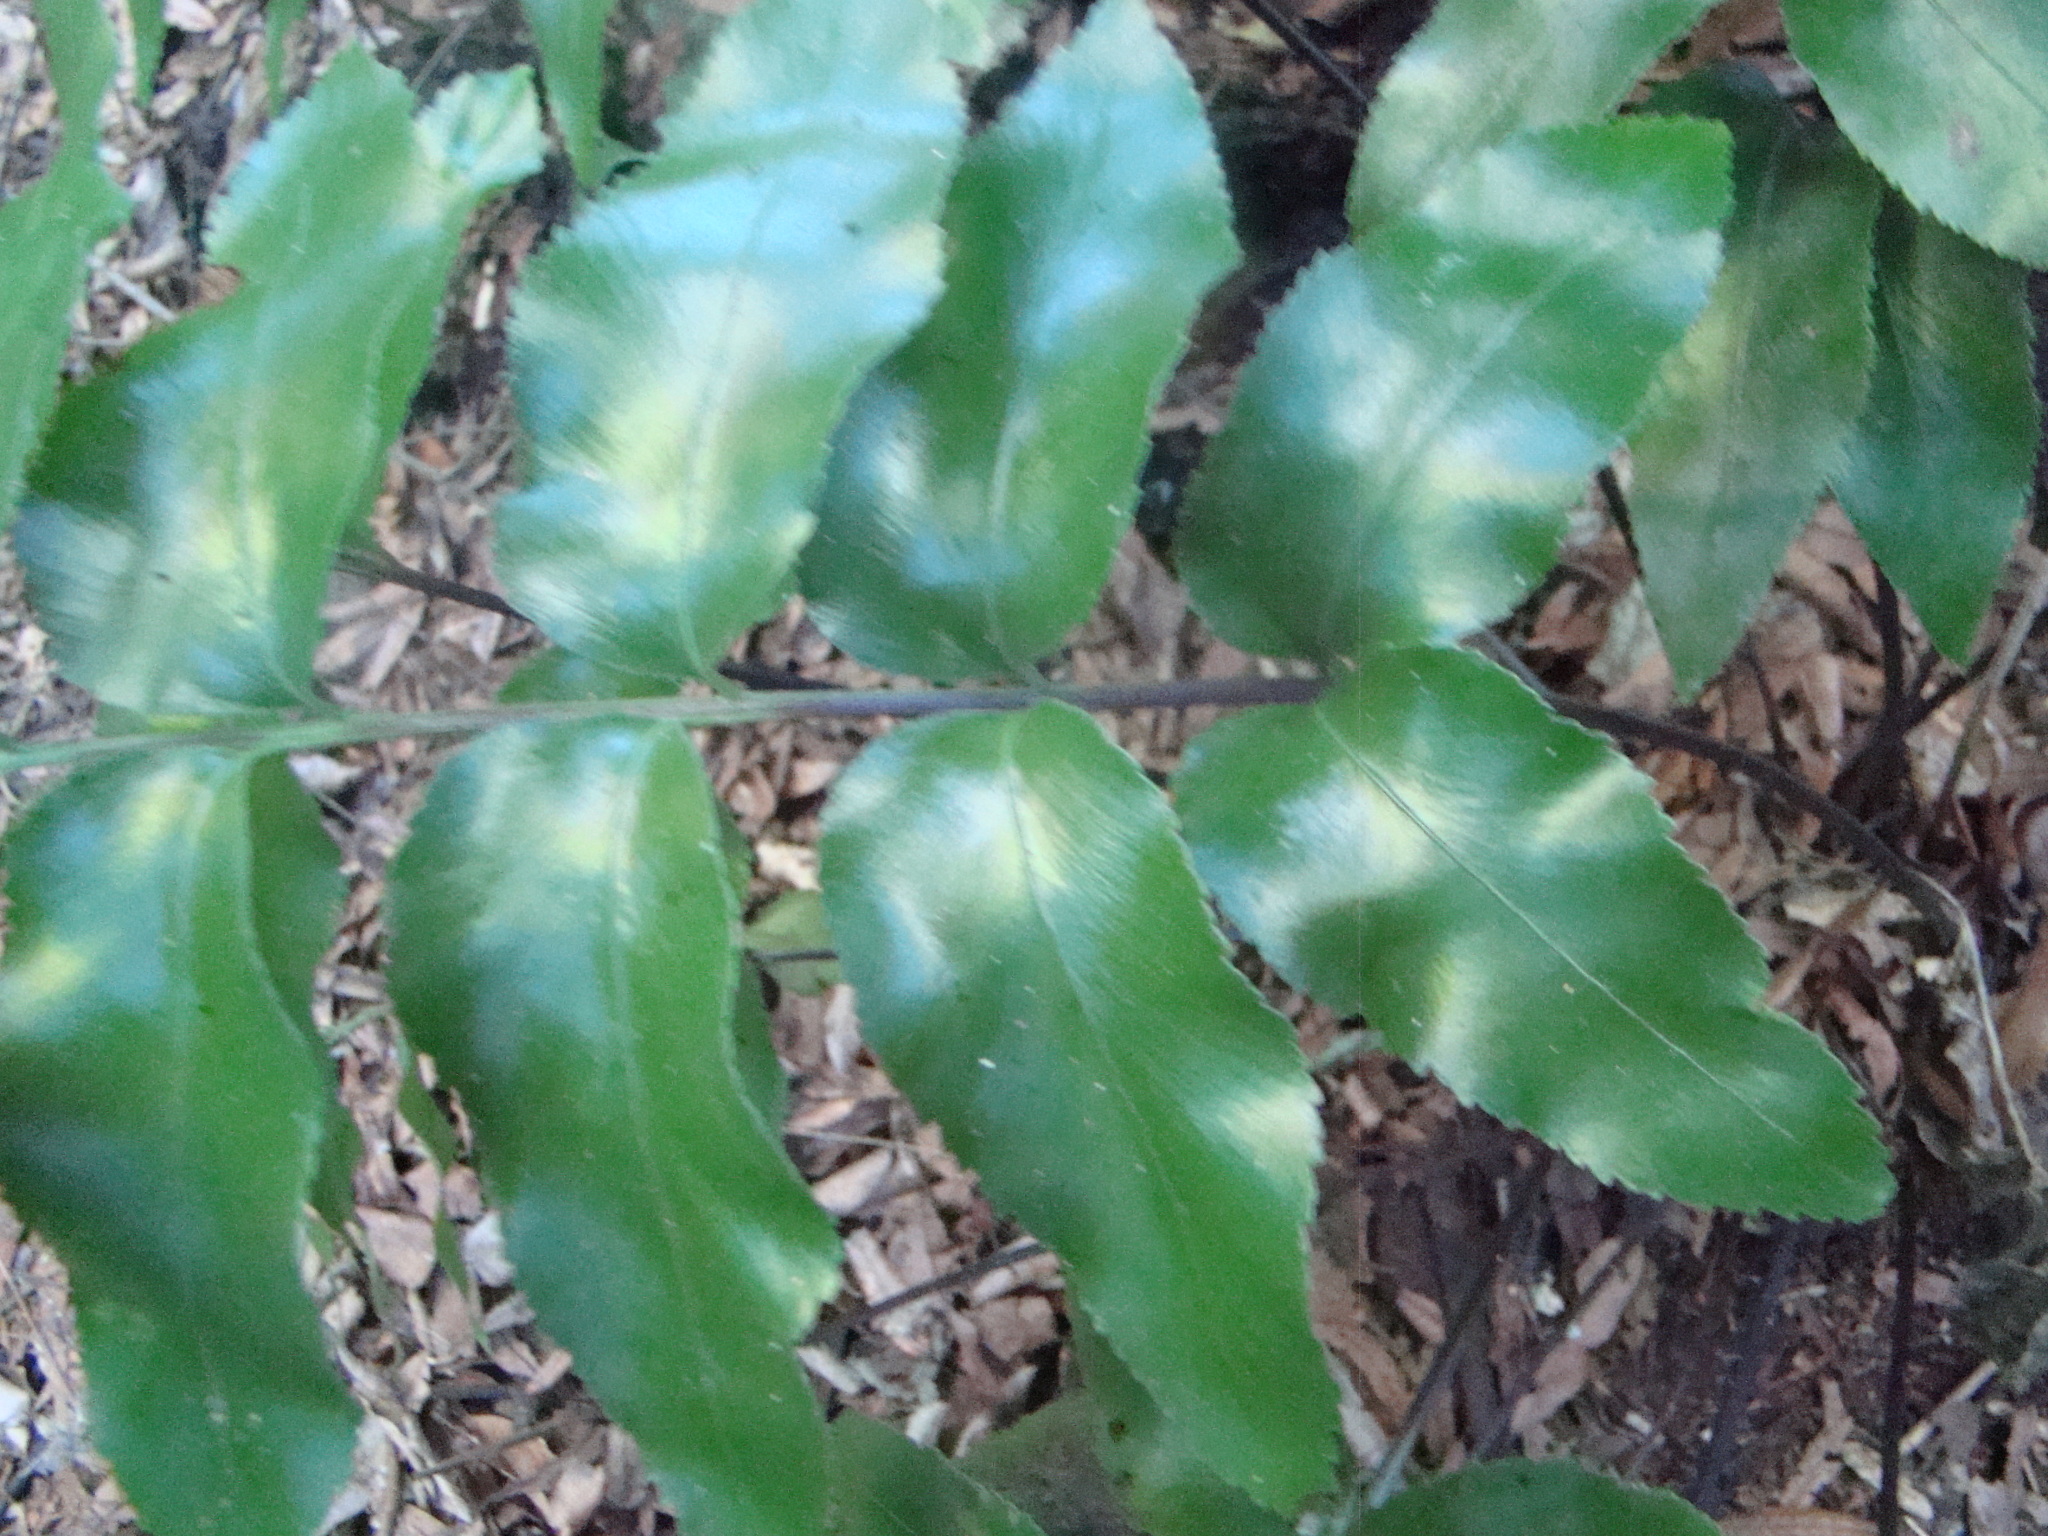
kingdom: Plantae
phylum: Tracheophyta
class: Polypodiopsida
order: Polypodiales
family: Aspleniaceae
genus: Asplenium
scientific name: Asplenium oblongifolium
